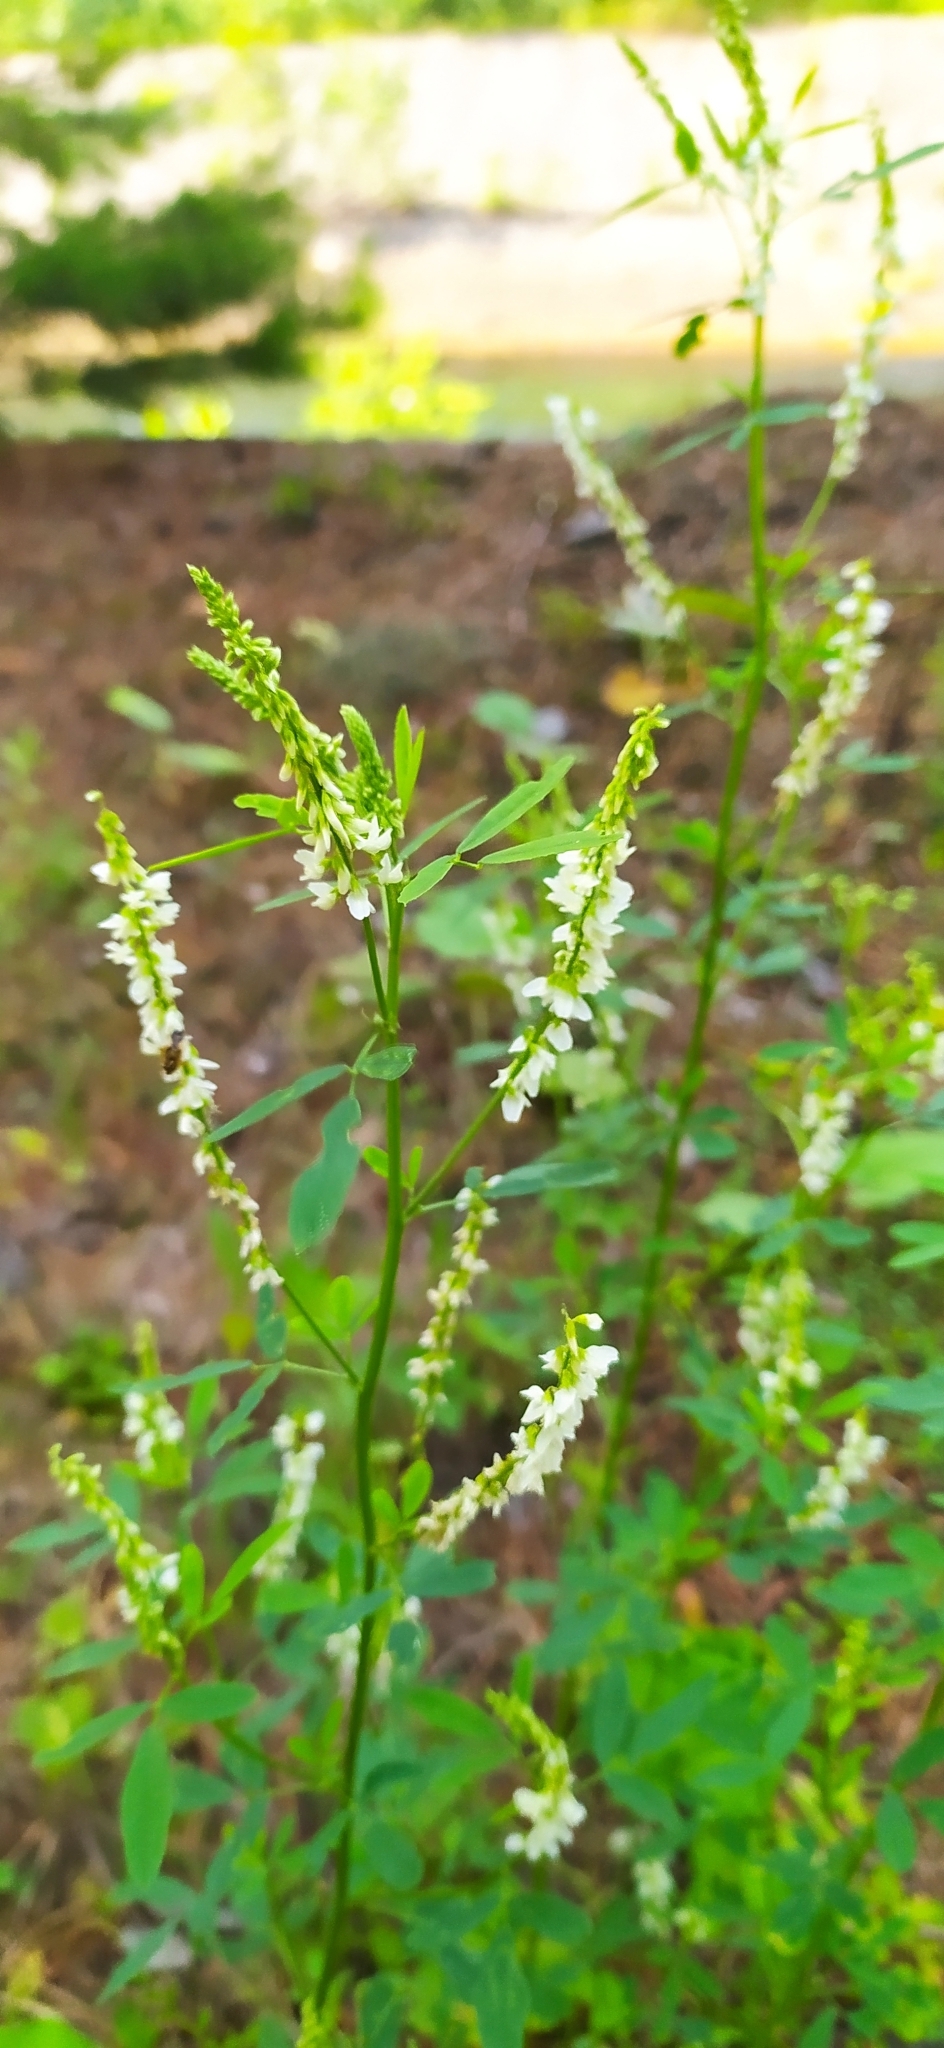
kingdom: Plantae
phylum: Tracheophyta
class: Magnoliopsida
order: Fabales
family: Fabaceae
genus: Melilotus
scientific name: Melilotus albus
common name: White melilot
